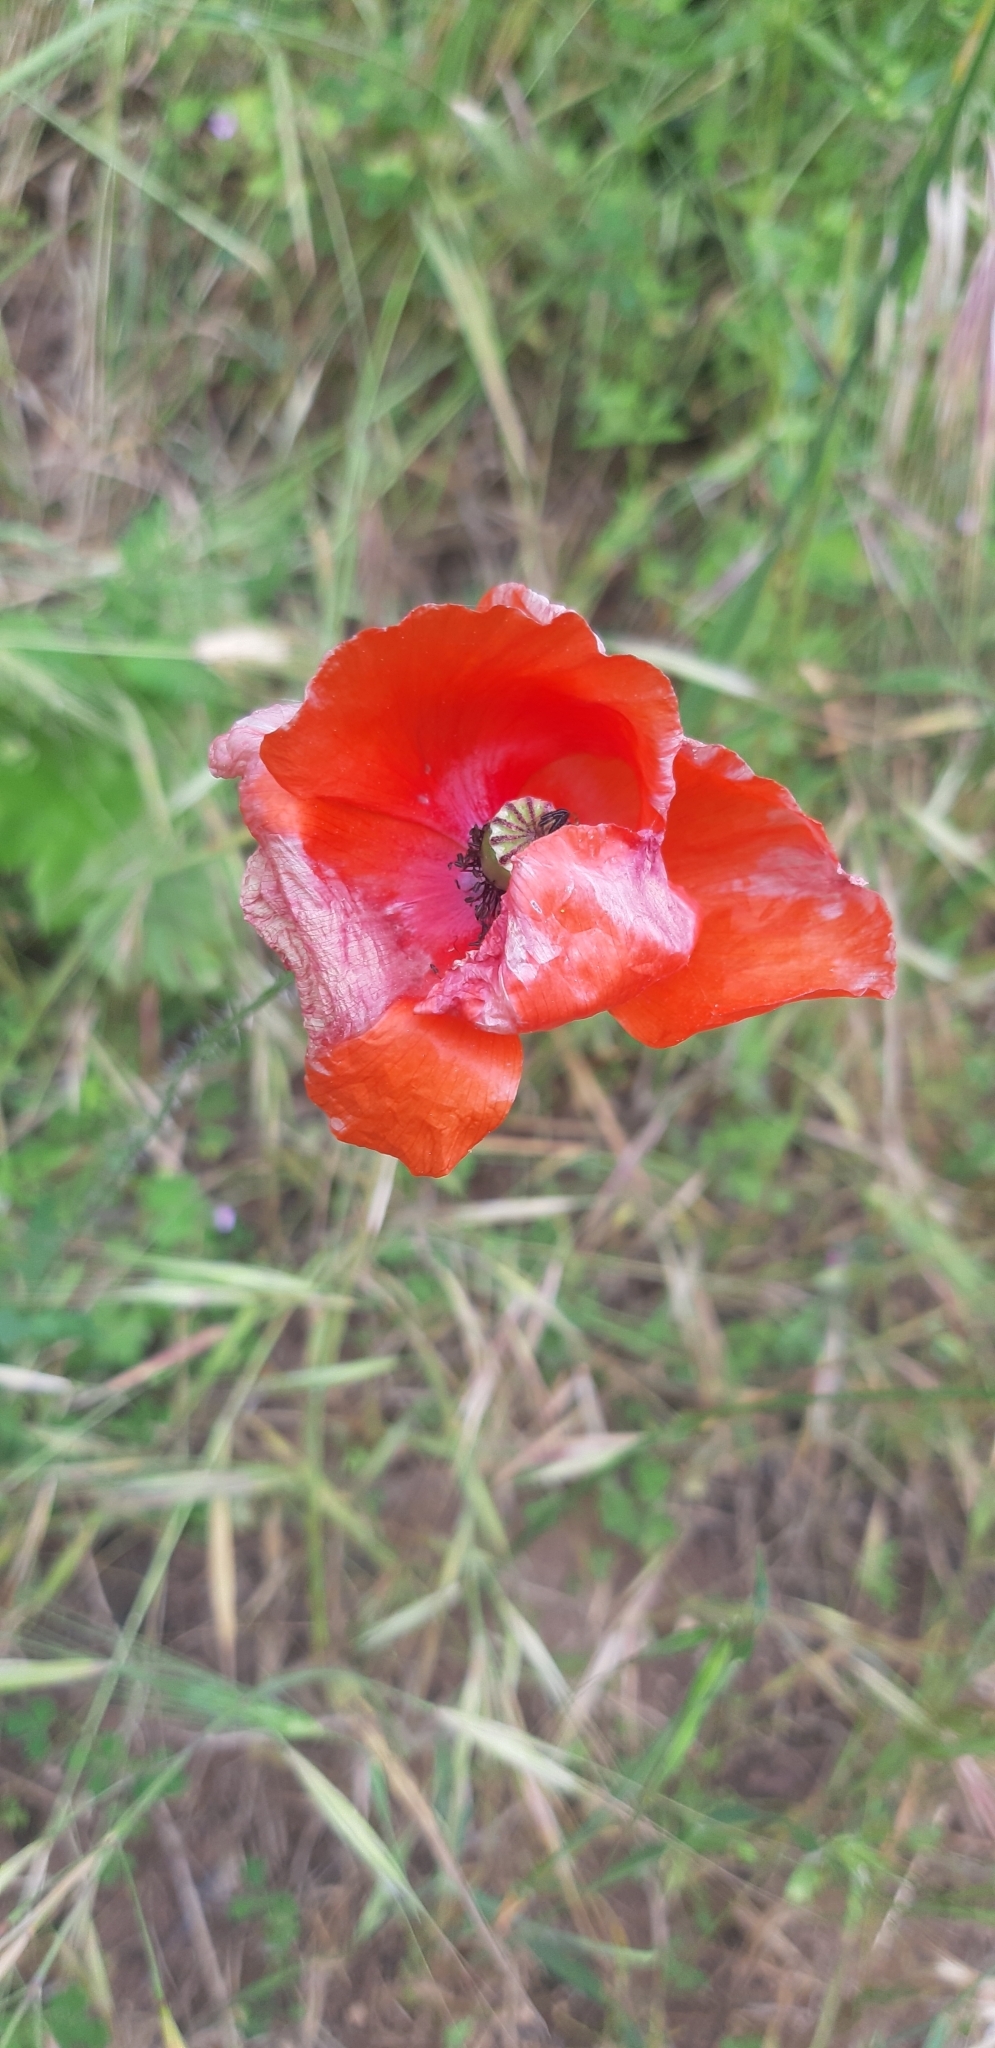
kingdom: Plantae
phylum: Tracheophyta
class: Magnoliopsida
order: Ranunculales
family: Papaveraceae
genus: Papaver
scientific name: Papaver rhoeas
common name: Corn poppy
